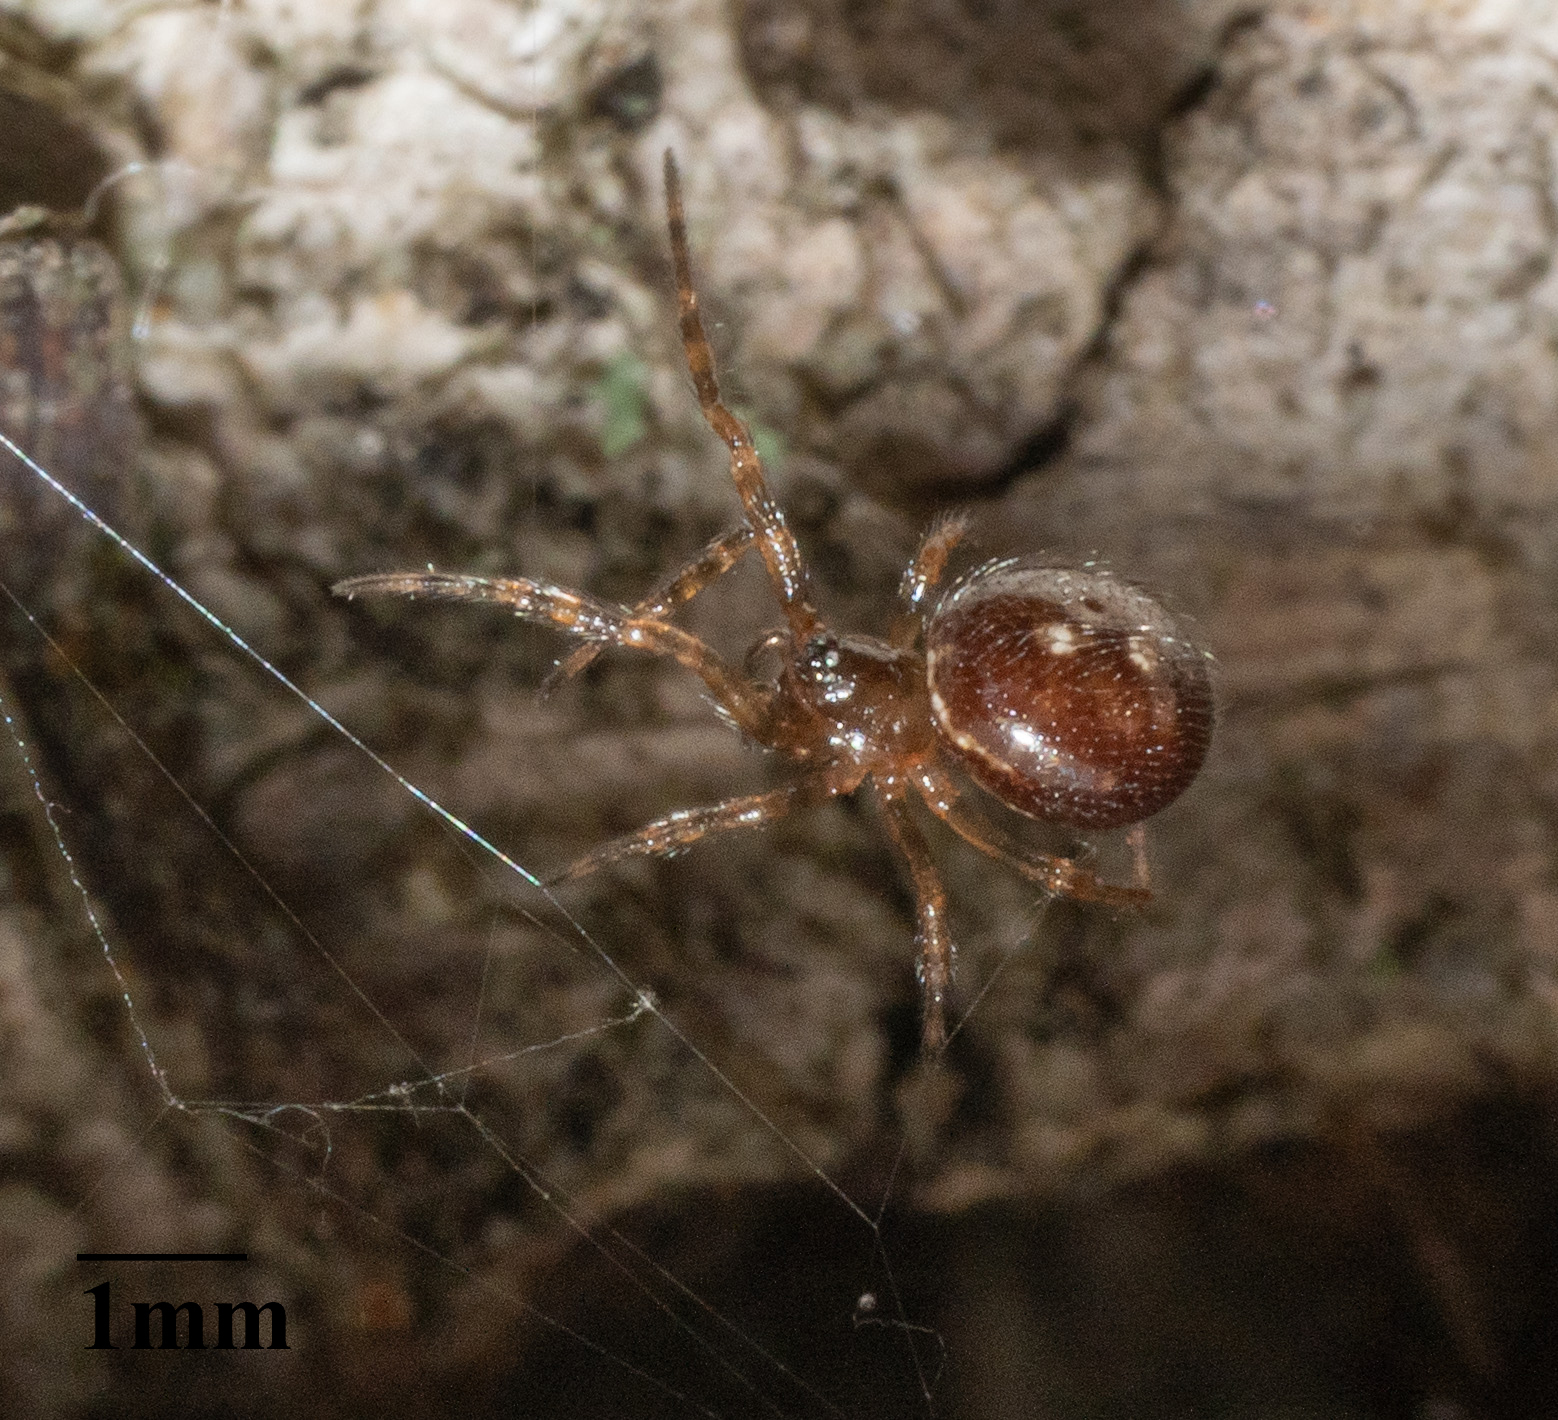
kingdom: Animalia
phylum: Arthropoda
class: Arachnida
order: Araneae
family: Theridiidae
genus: Steatoda
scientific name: Steatoda bipunctata
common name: False widow
